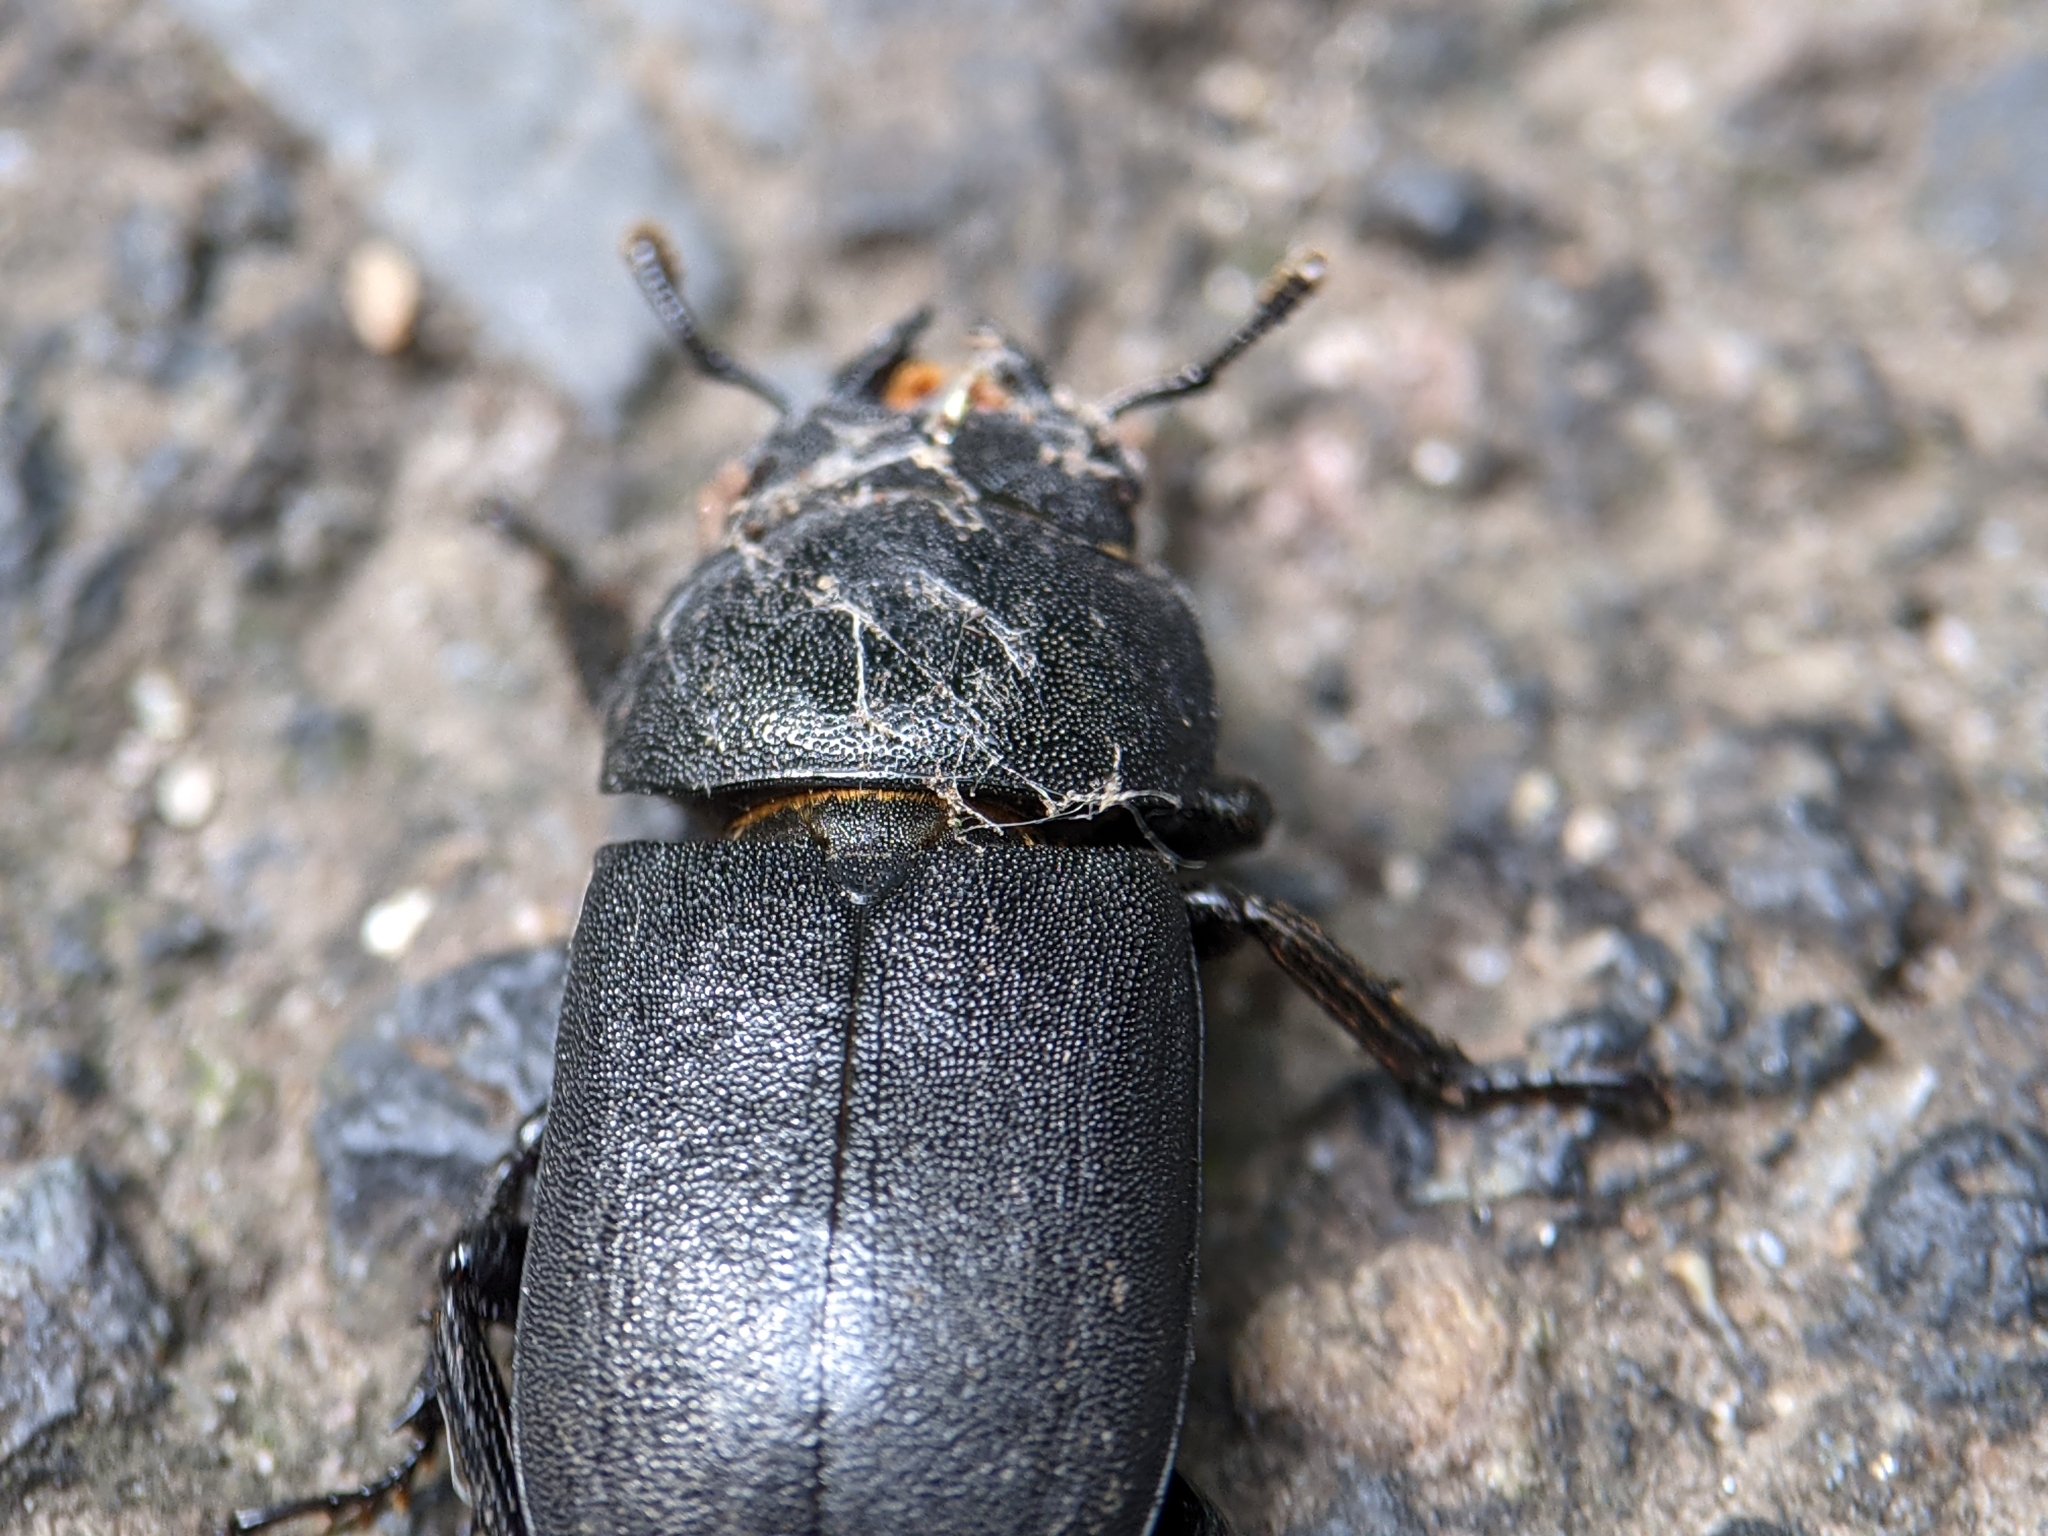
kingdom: Animalia
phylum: Arthropoda
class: Insecta
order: Coleoptera
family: Lucanidae
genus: Dorcus
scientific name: Dorcus parallelipipedus
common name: Lesser stag beetle
